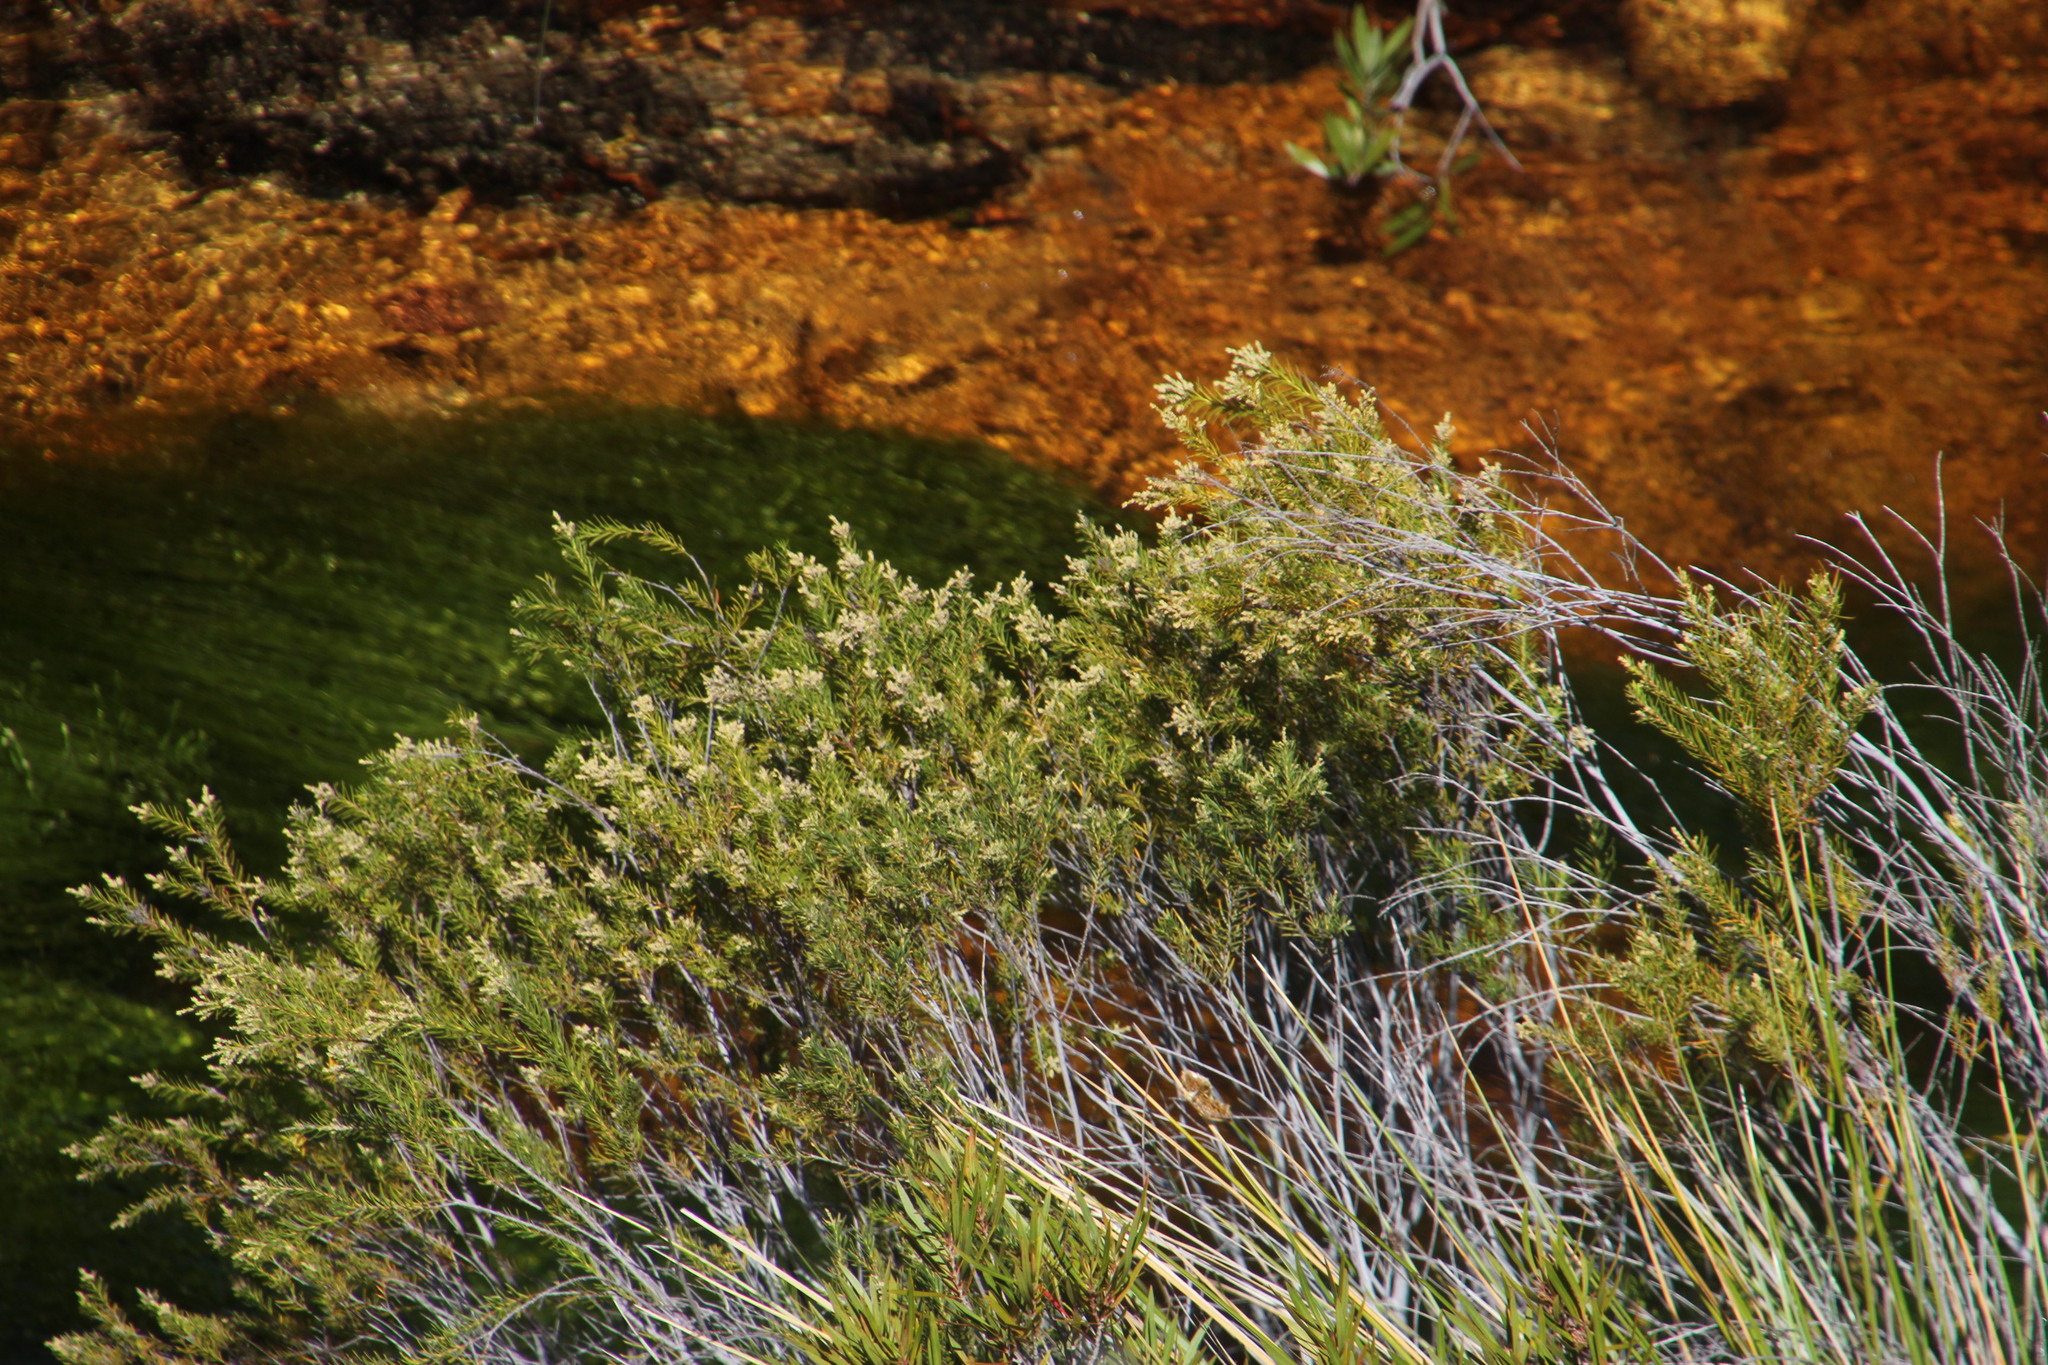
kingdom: Plantae
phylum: Tracheophyta
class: Magnoliopsida
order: Bruniales
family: Bruniaceae
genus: Brunia
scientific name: Brunia africana
